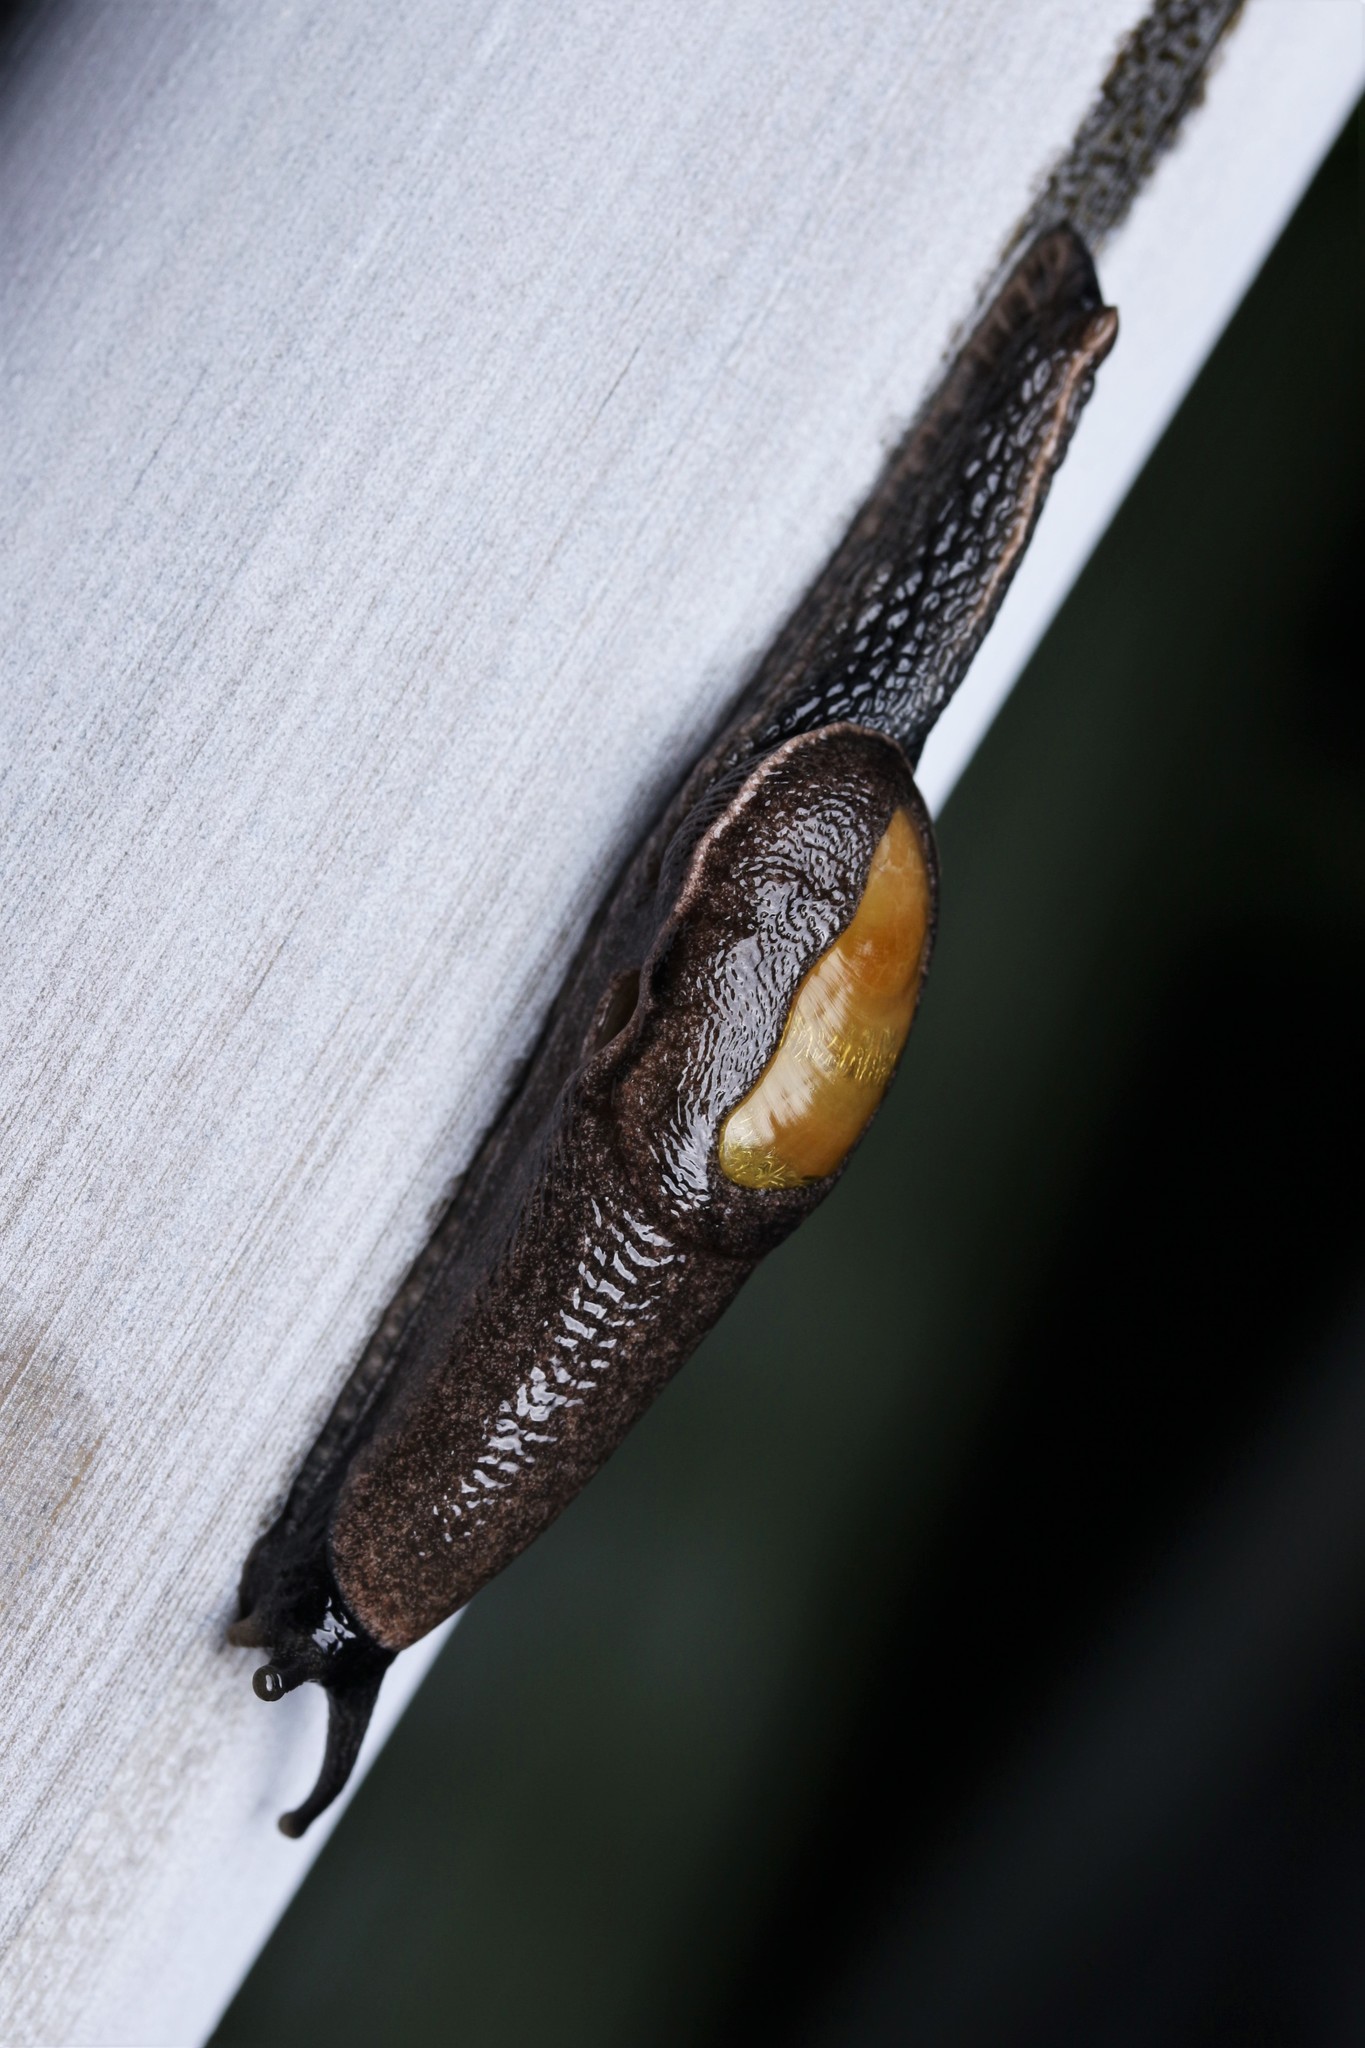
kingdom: Animalia
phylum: Mollusca
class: Gastropoda
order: Stylommatophora
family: Ariophantidae
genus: Parmarion
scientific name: Parmarion martensi
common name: Semi-slug
